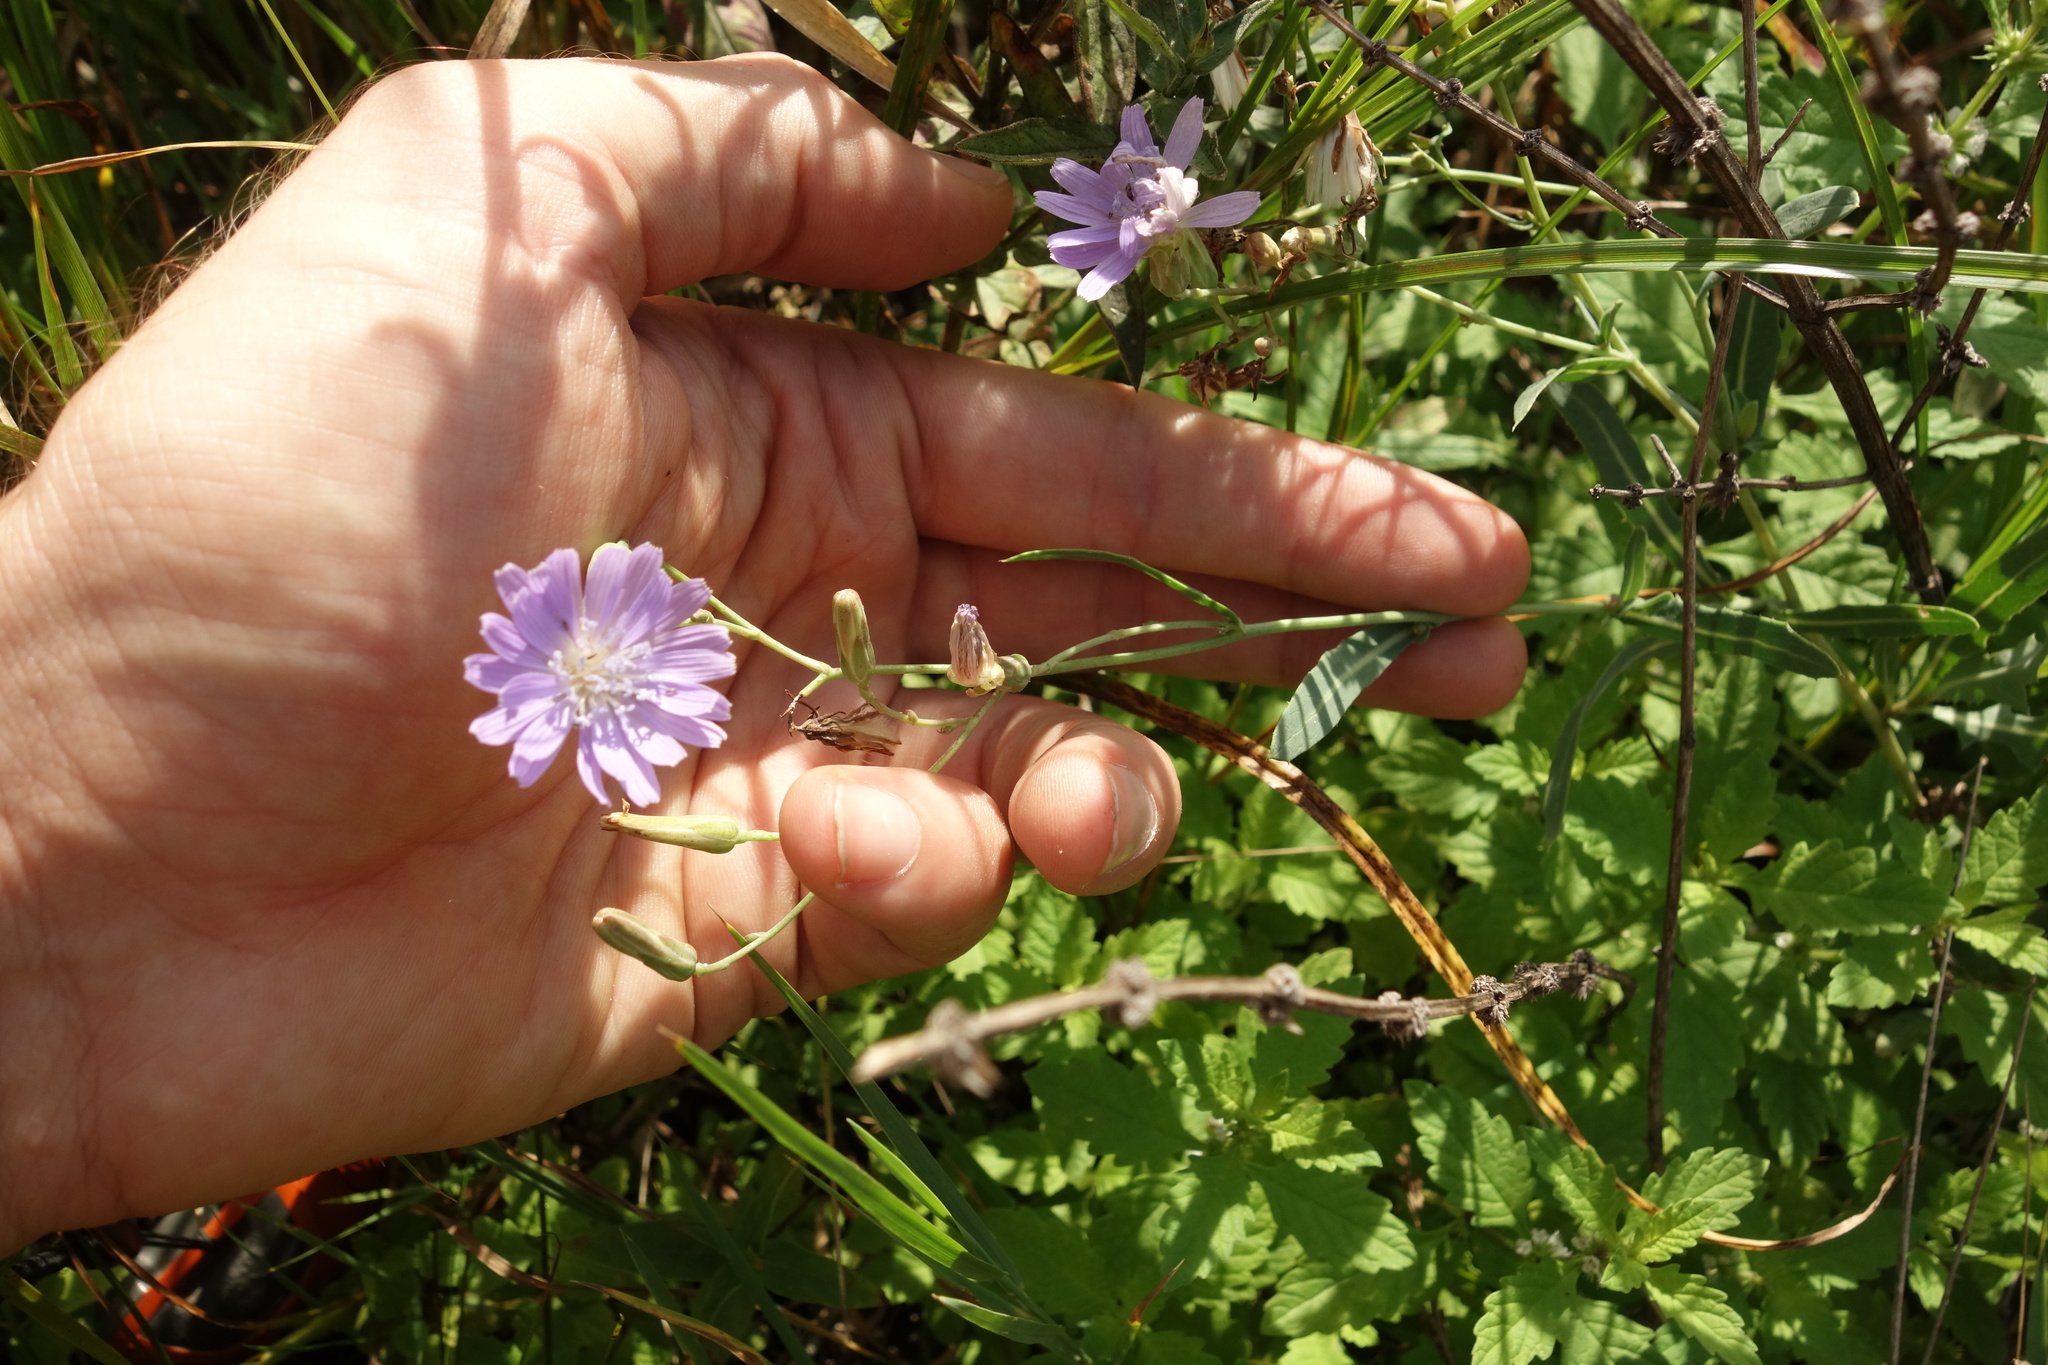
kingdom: Plantae
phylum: Tracheophyta
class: Magnoliopsida
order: Asterales
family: Asteraceae
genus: Lactuca
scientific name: Lactuca tatarica
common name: Blue lettuce
